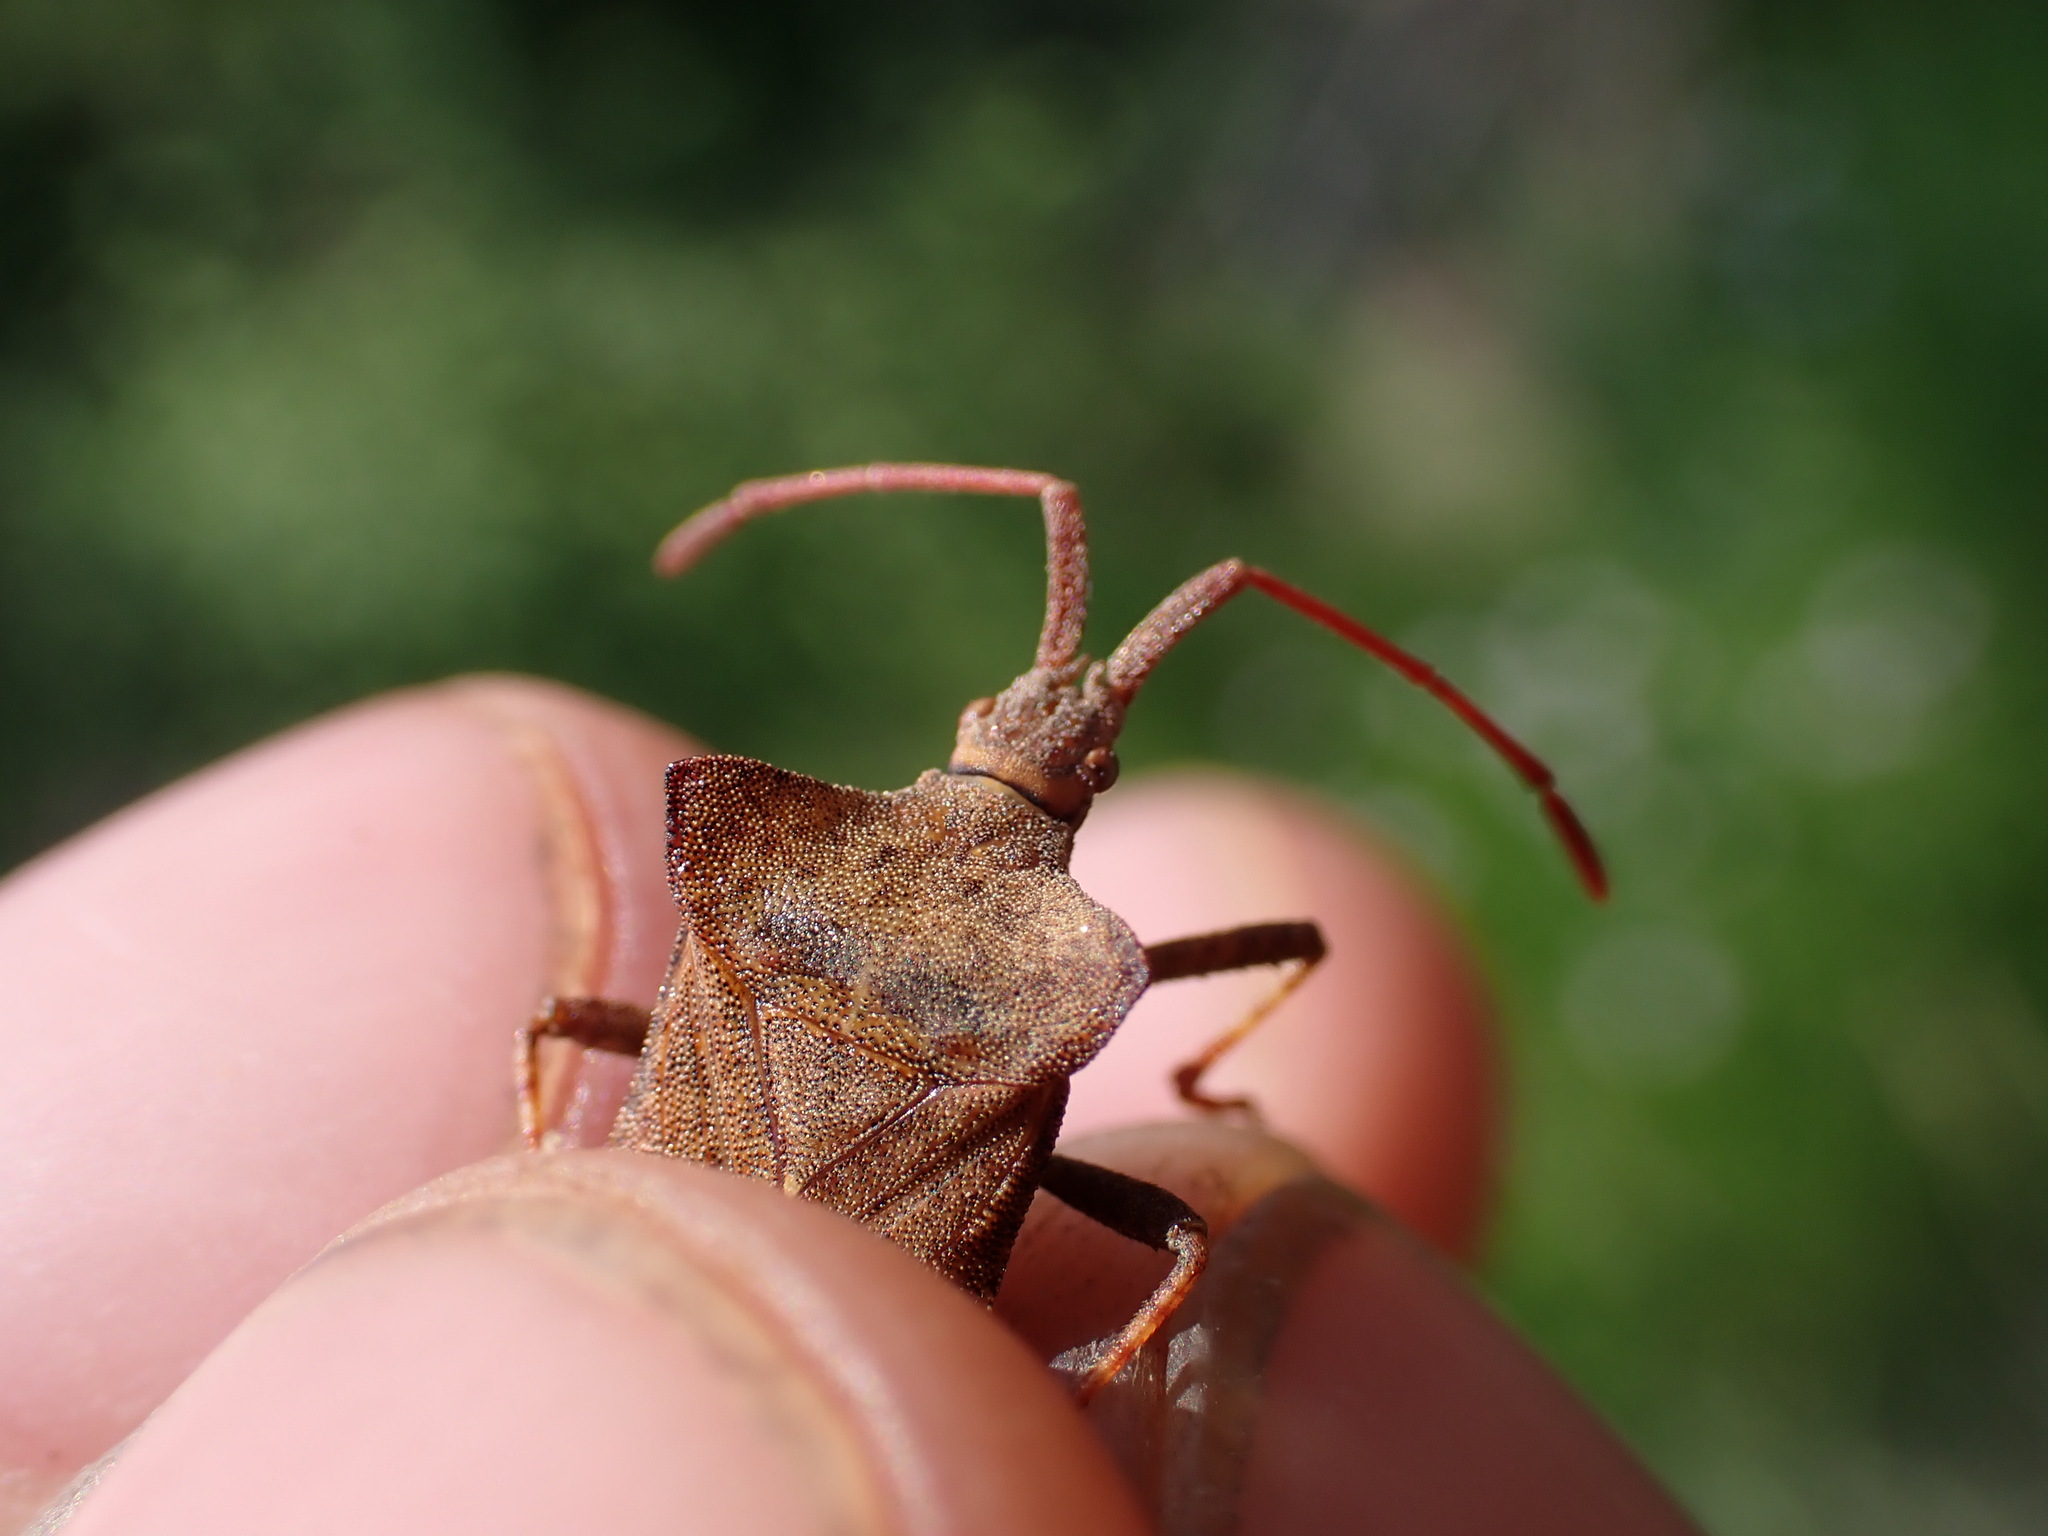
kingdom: Animalia
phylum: Arthropoda
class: Insecta
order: Hemiptera
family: Coreidae
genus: Coreus
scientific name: Coreus marginatus
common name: Dock bug
